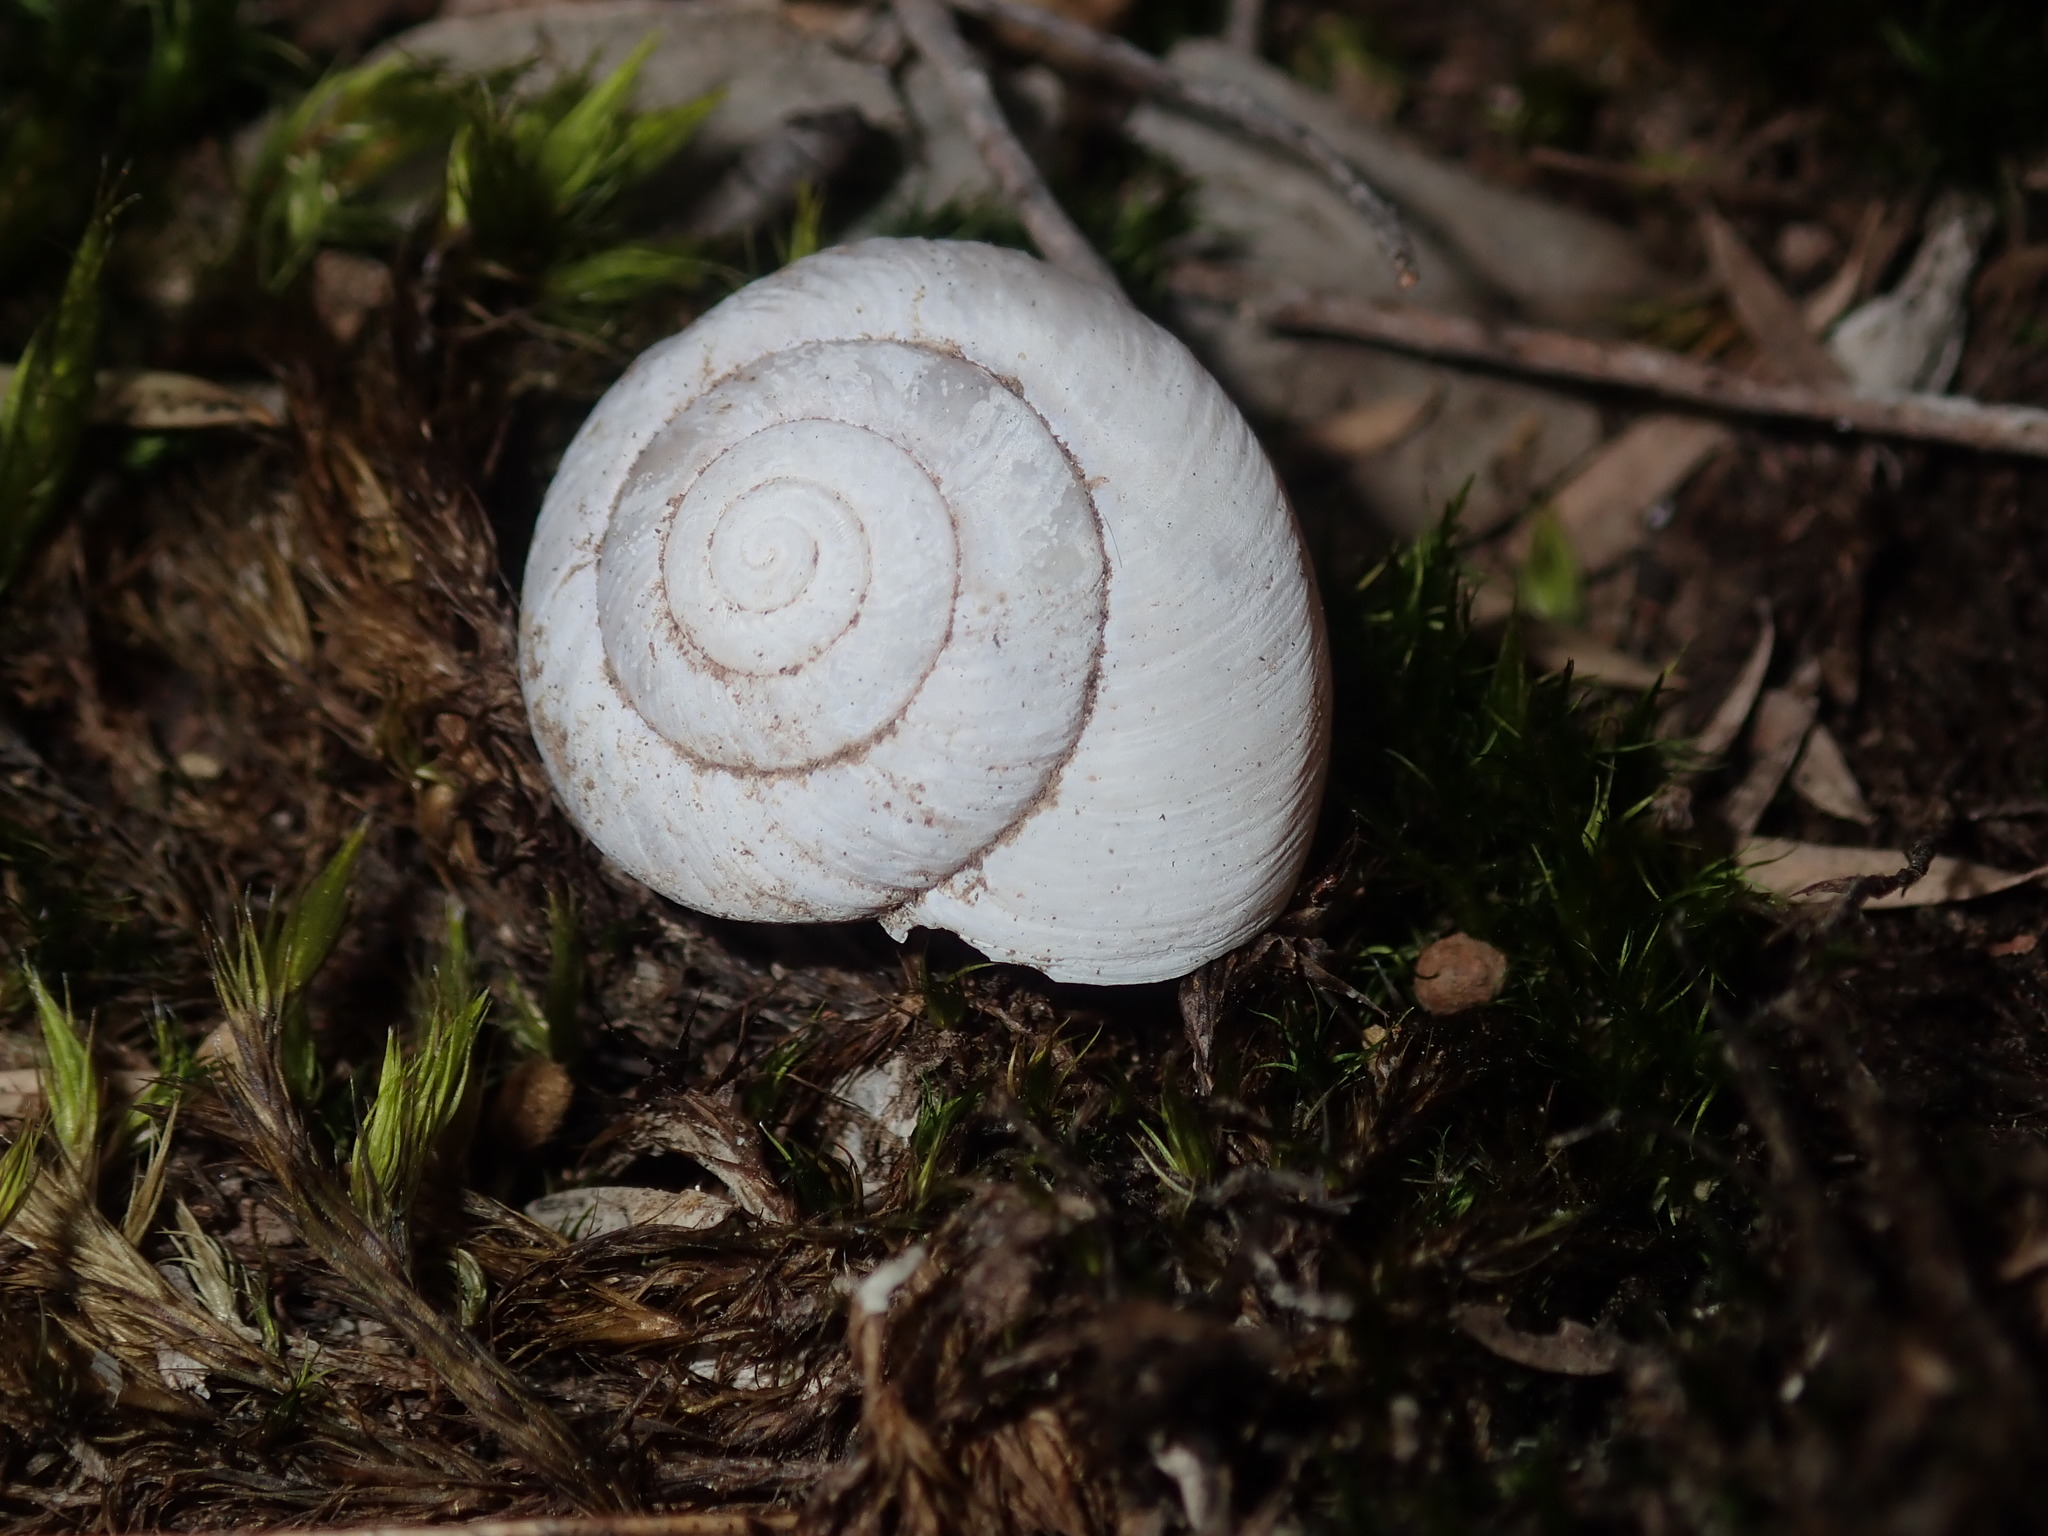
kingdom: Animalia
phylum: Mollusca
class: Gastropoda
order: Stylommatophora
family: Camaenidae
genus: Sauroconcha
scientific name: Sauroconcha sheai
